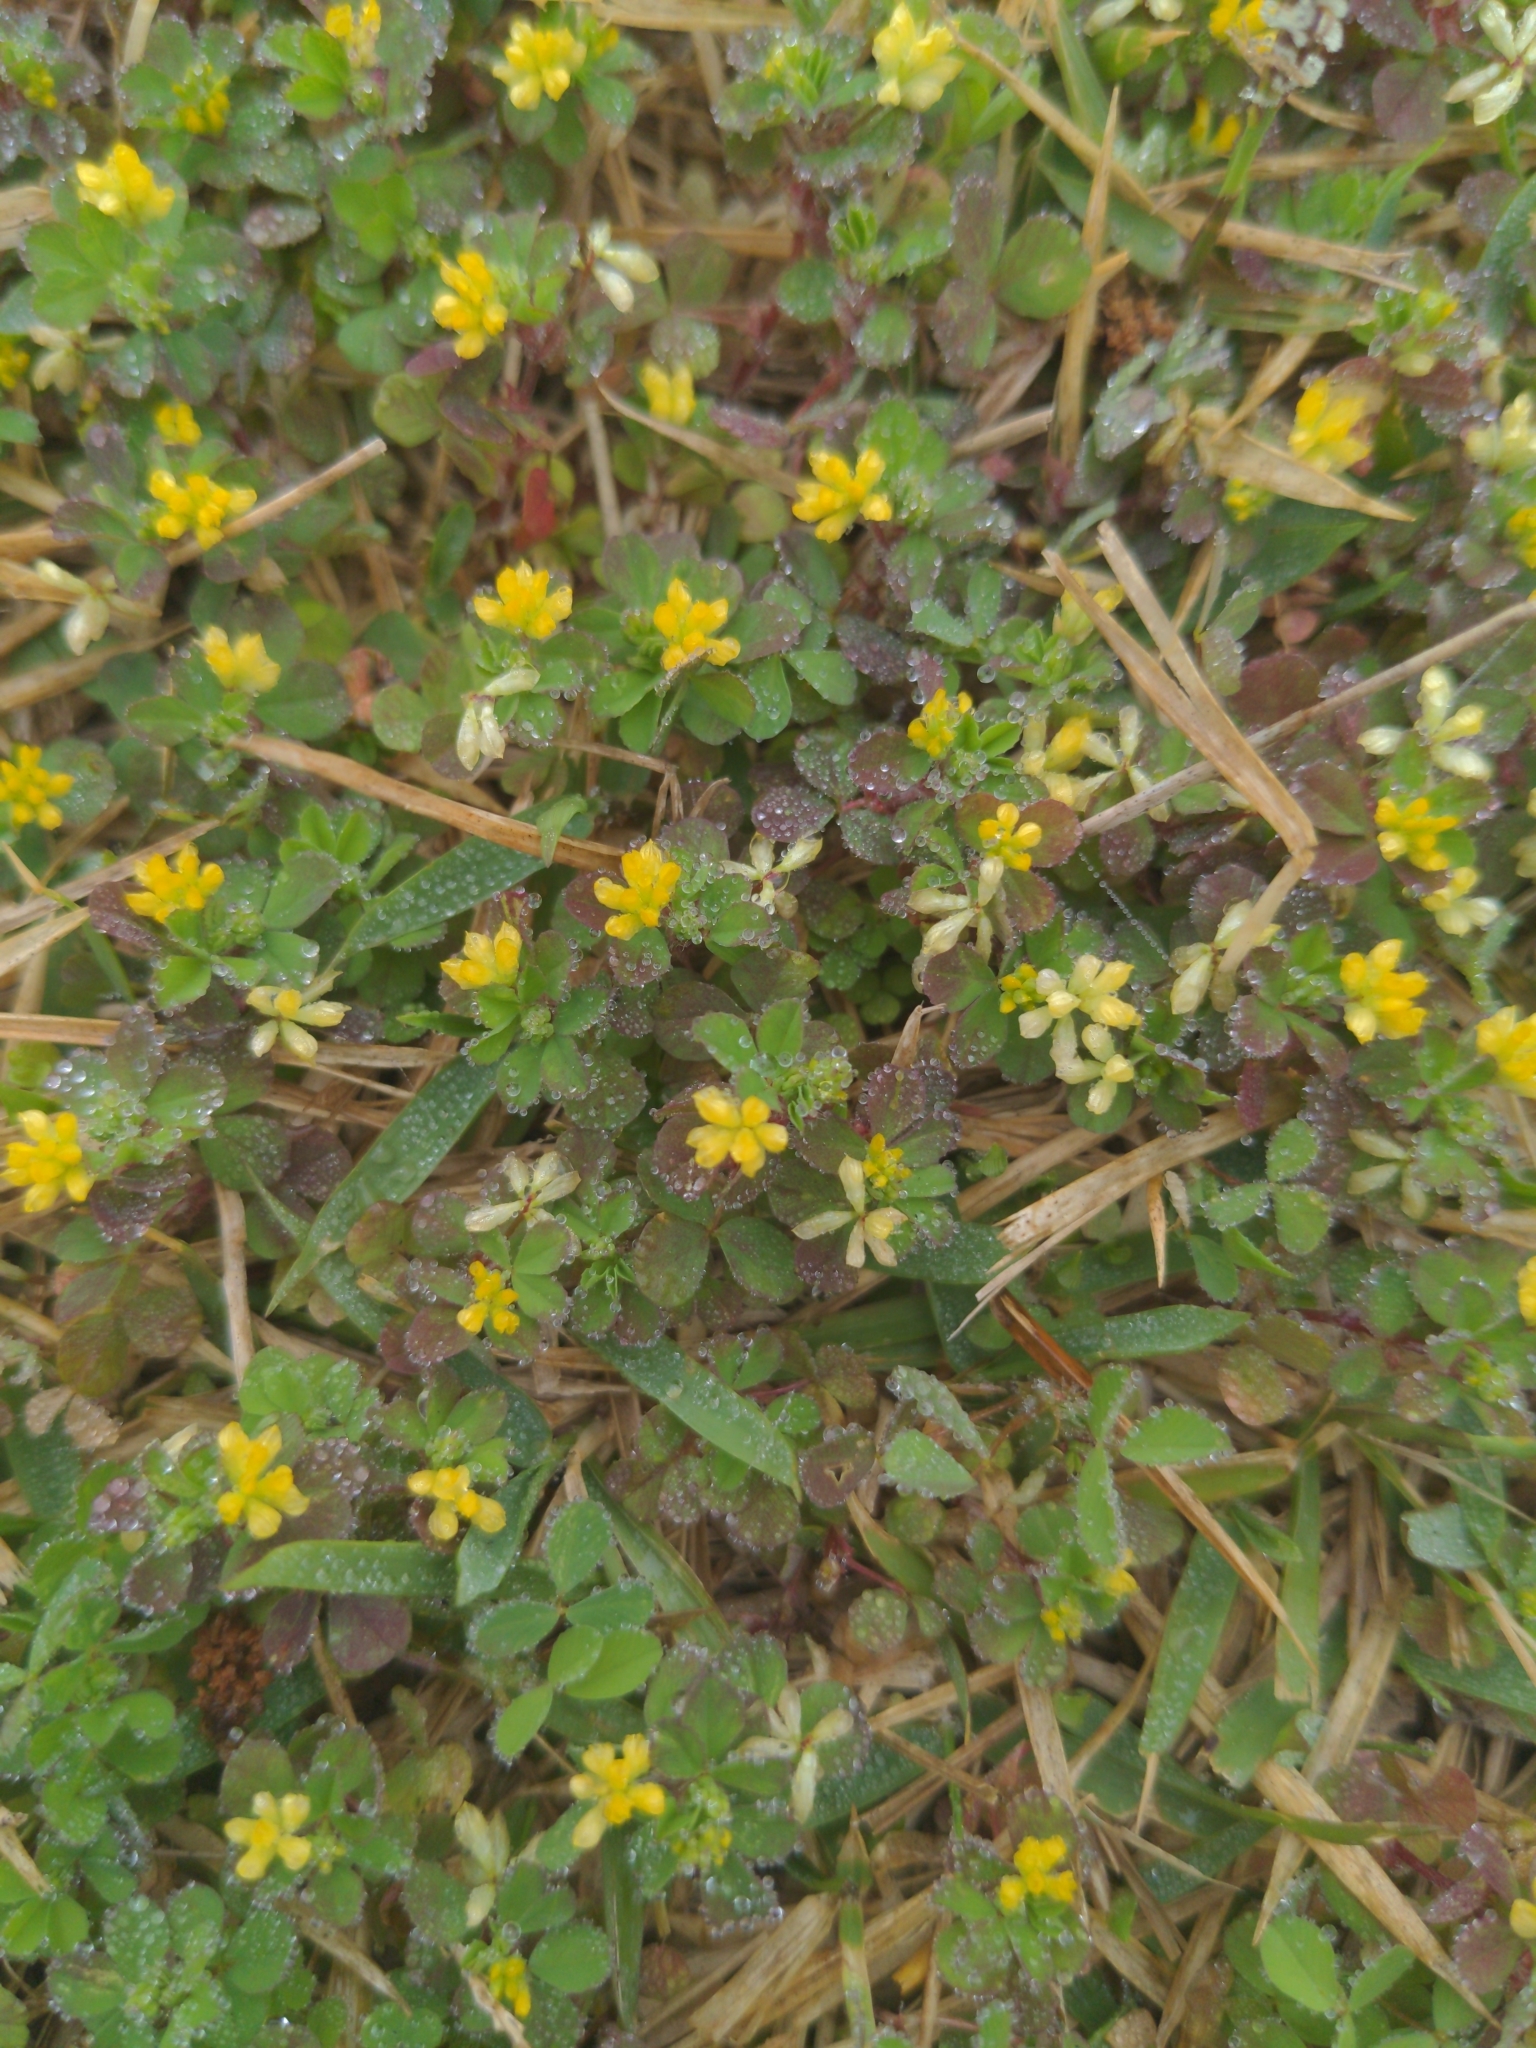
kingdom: Plantae
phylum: Tracheophyta
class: Magnoliopsida
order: Fabales
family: Fabaceae
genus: Trifolium
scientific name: Trifolium dubium
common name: Suckling clover
